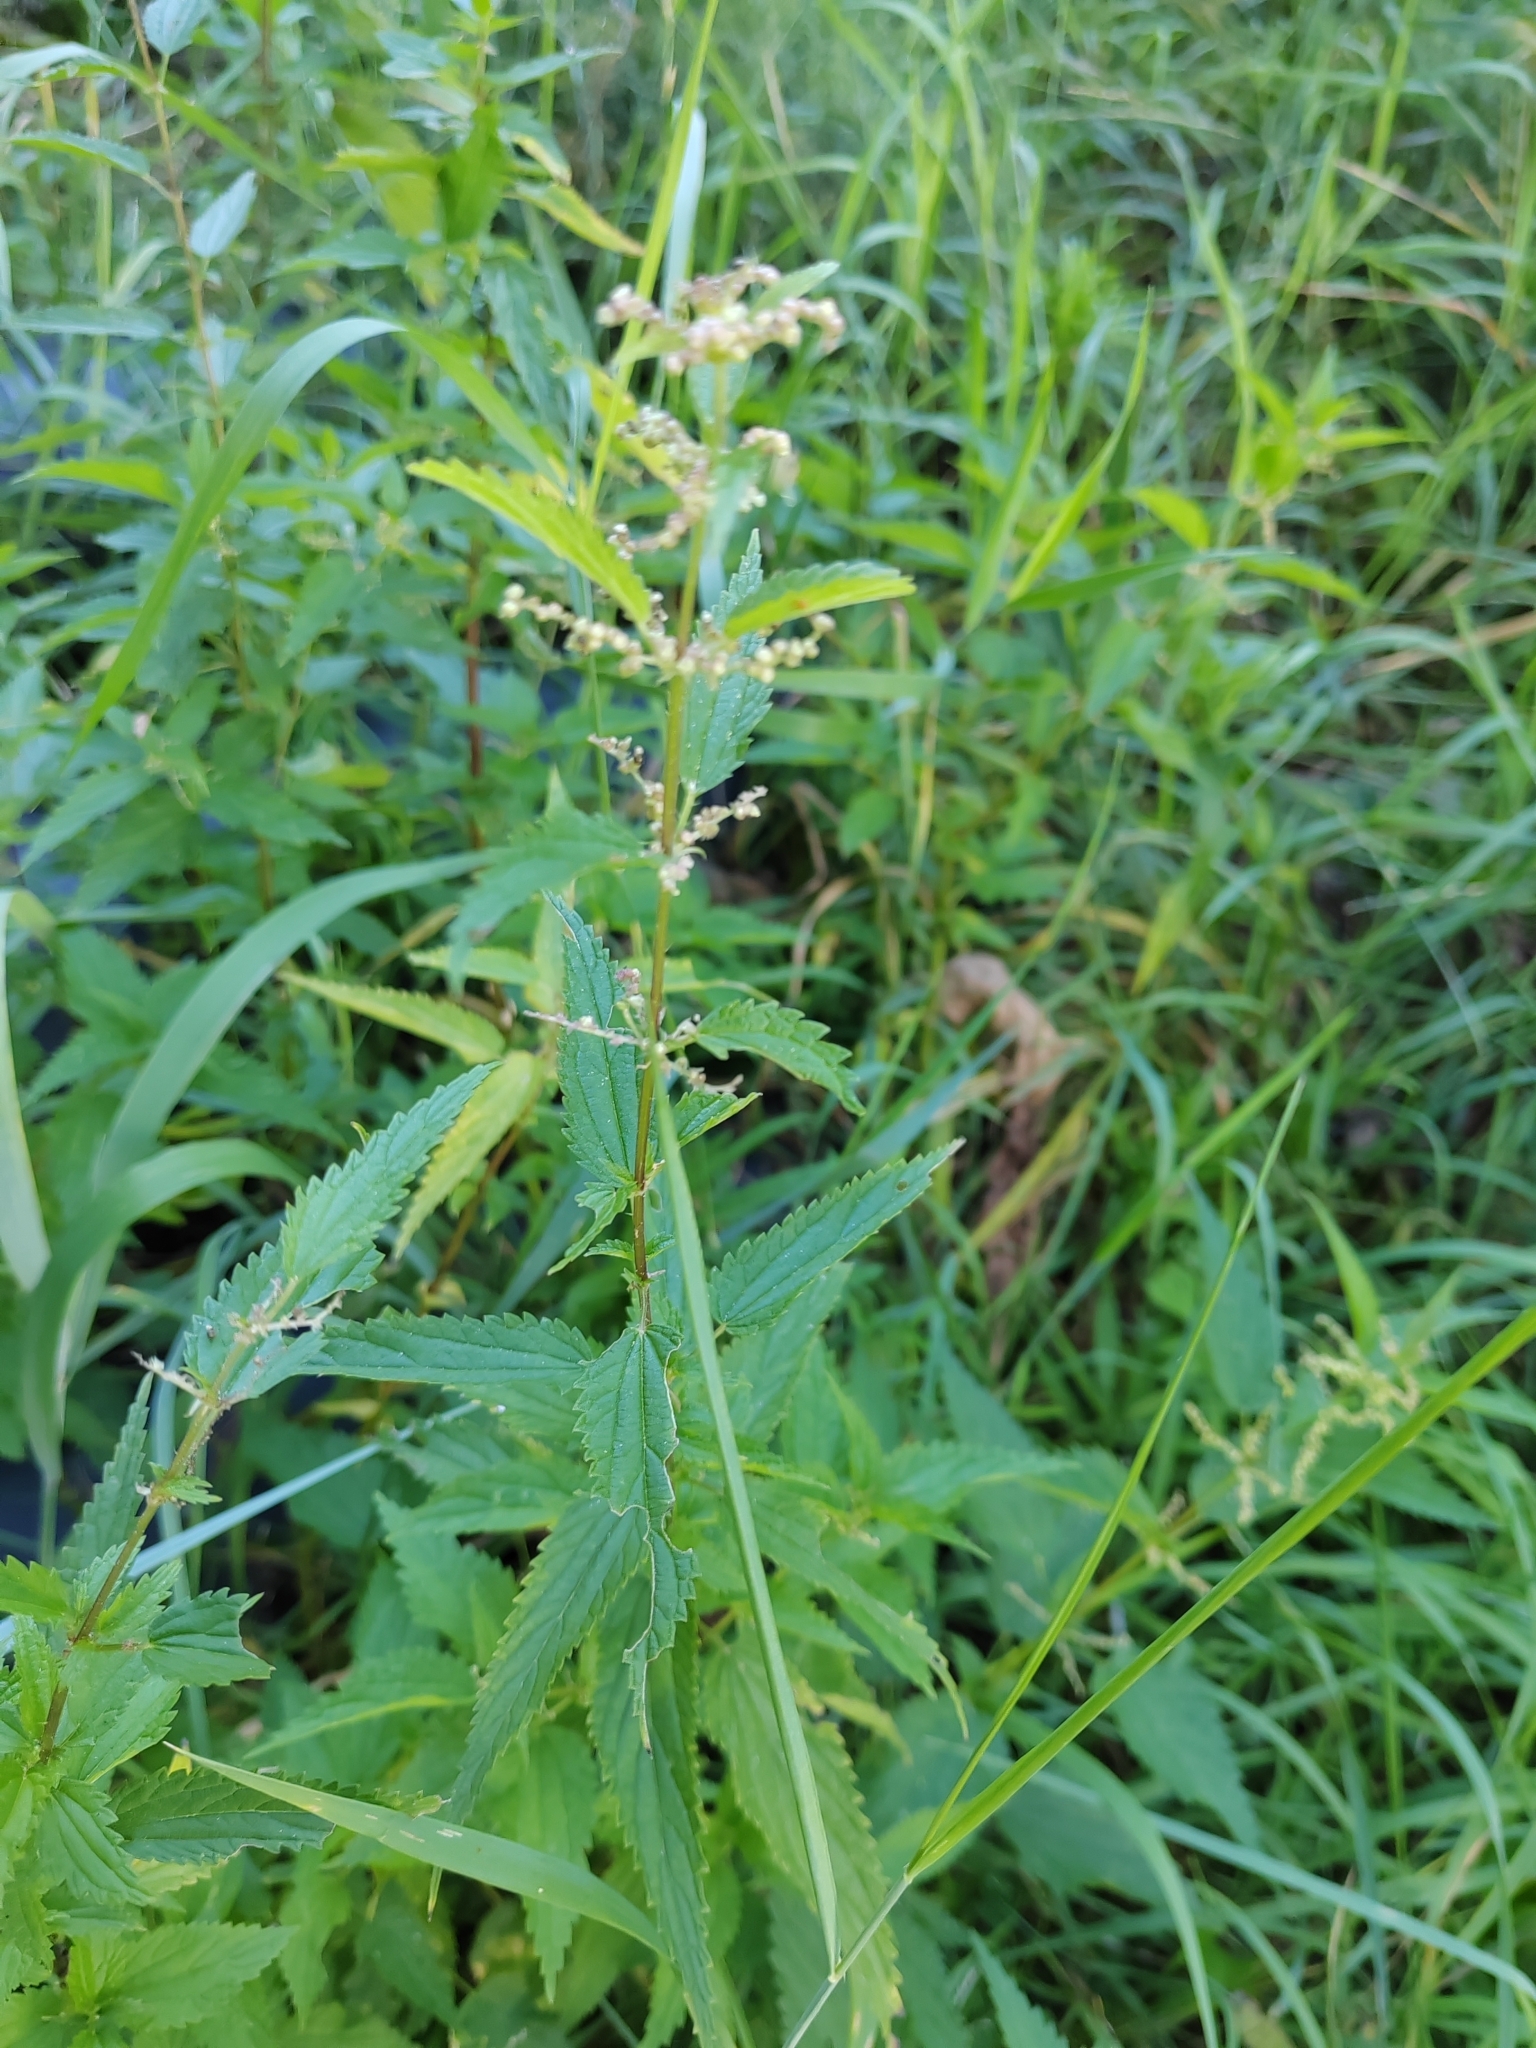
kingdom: Plantae
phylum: Tracheophyta
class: Magnoliopsida
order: Rosales
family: Urticaceae
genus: Urtica
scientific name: Urtica dioica
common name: Common nettle
